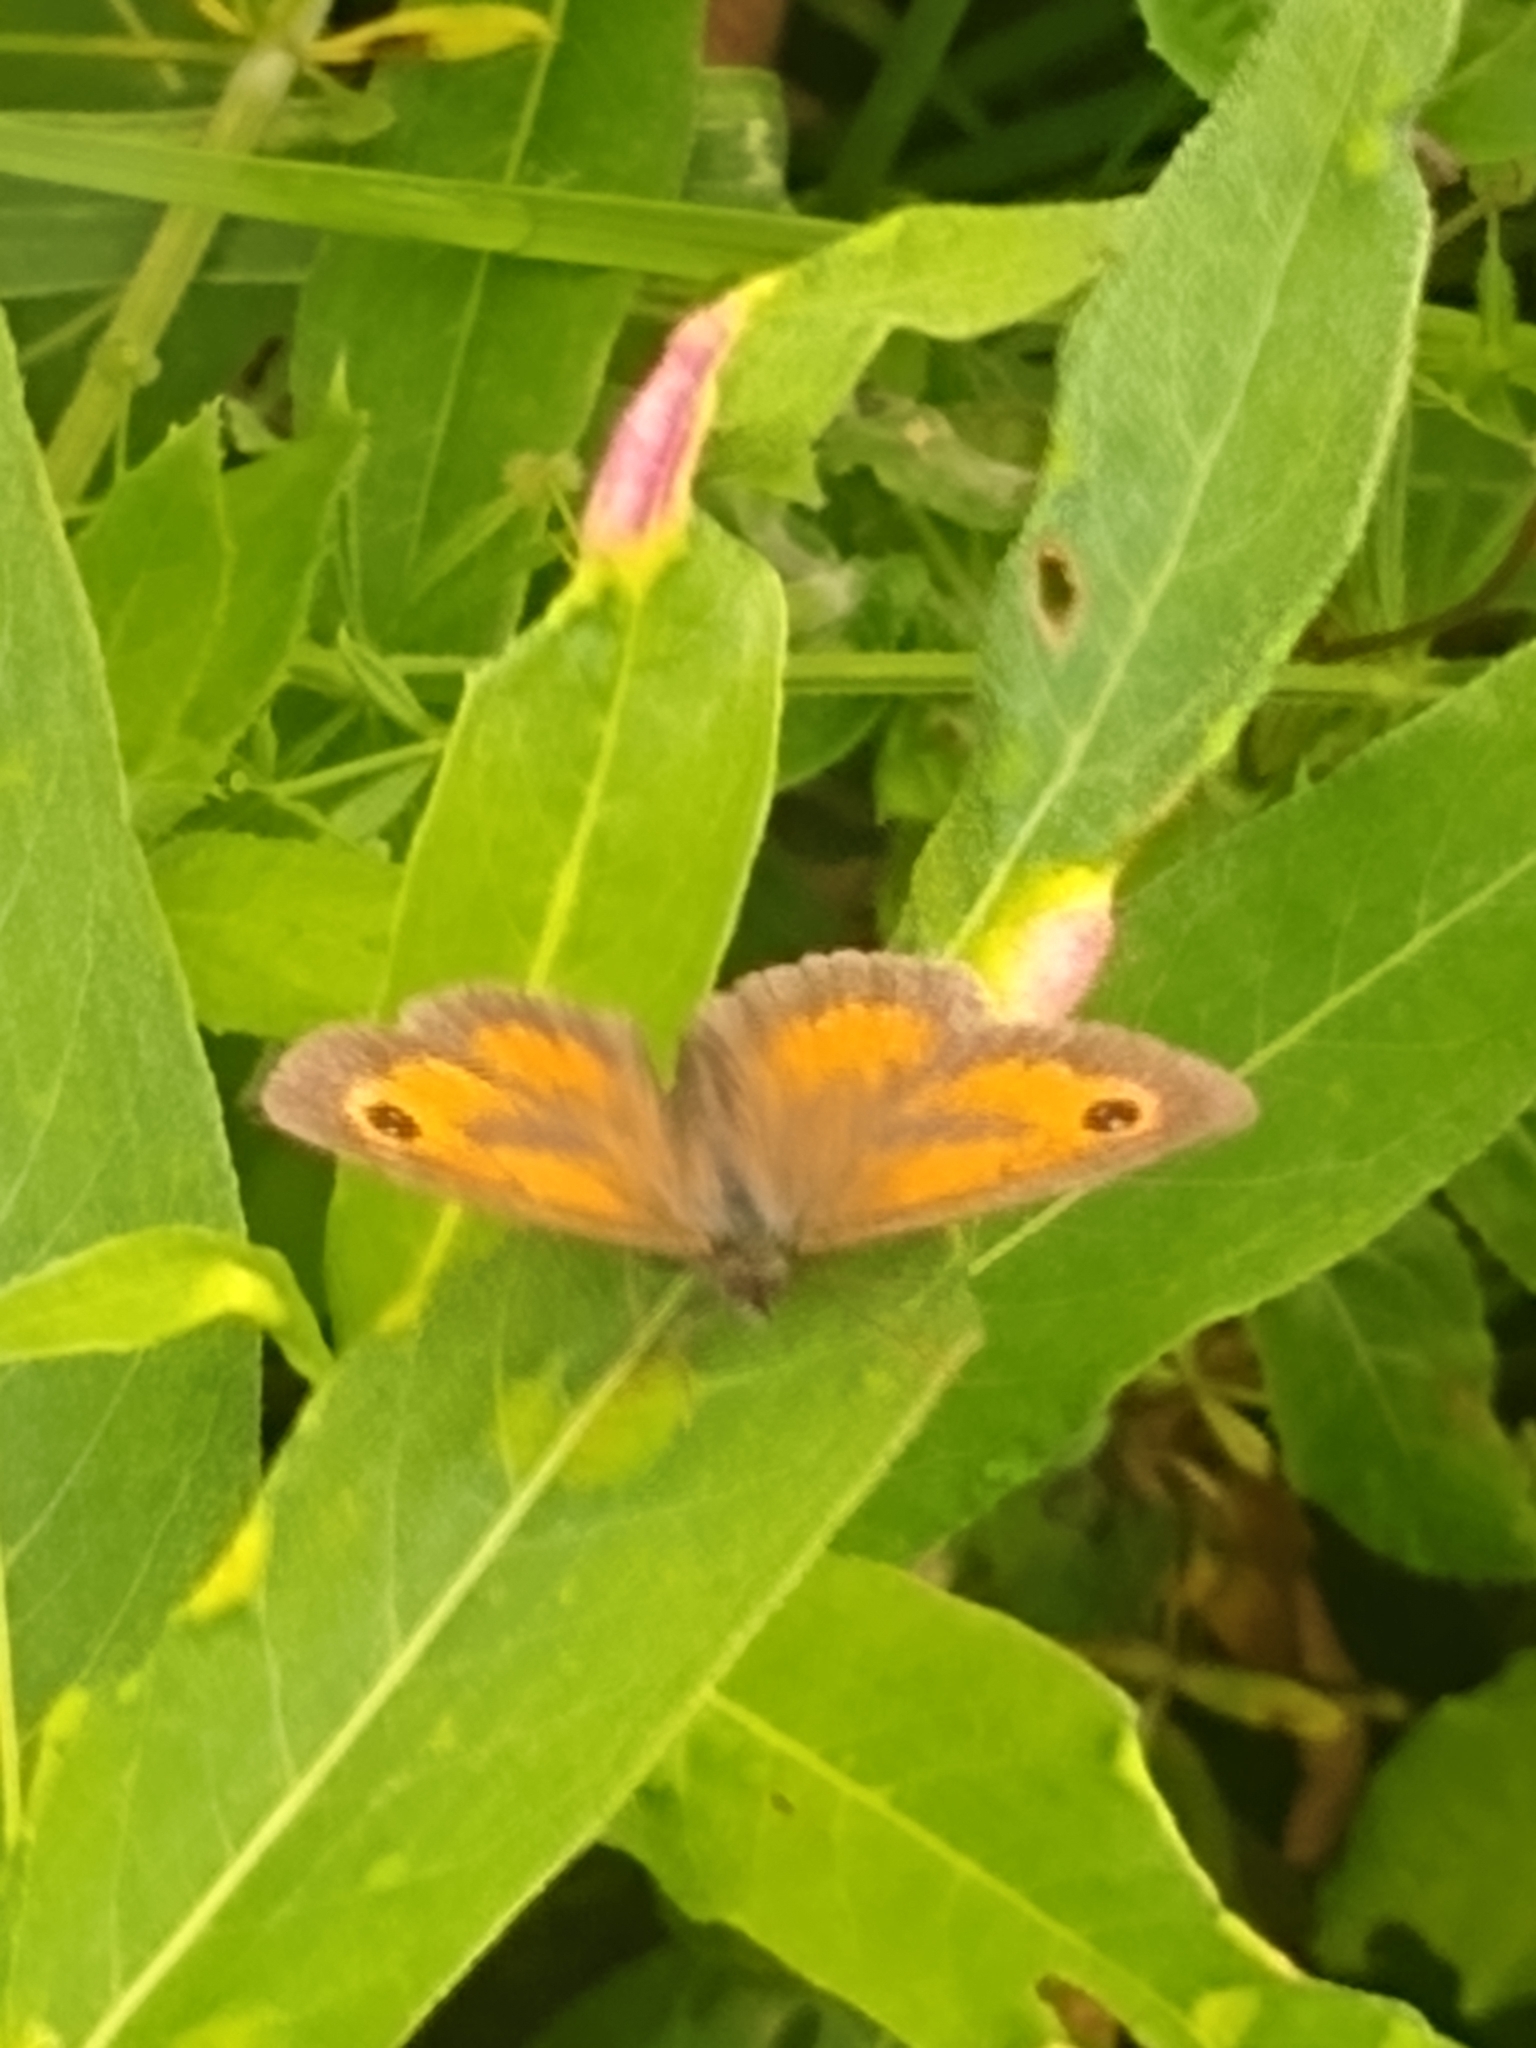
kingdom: Animalia
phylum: Arthropoda
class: Insecta
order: Lepidoptera
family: Nymphalidae
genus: Pyronia
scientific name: Pyronia tithonus
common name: Gatekeeper
